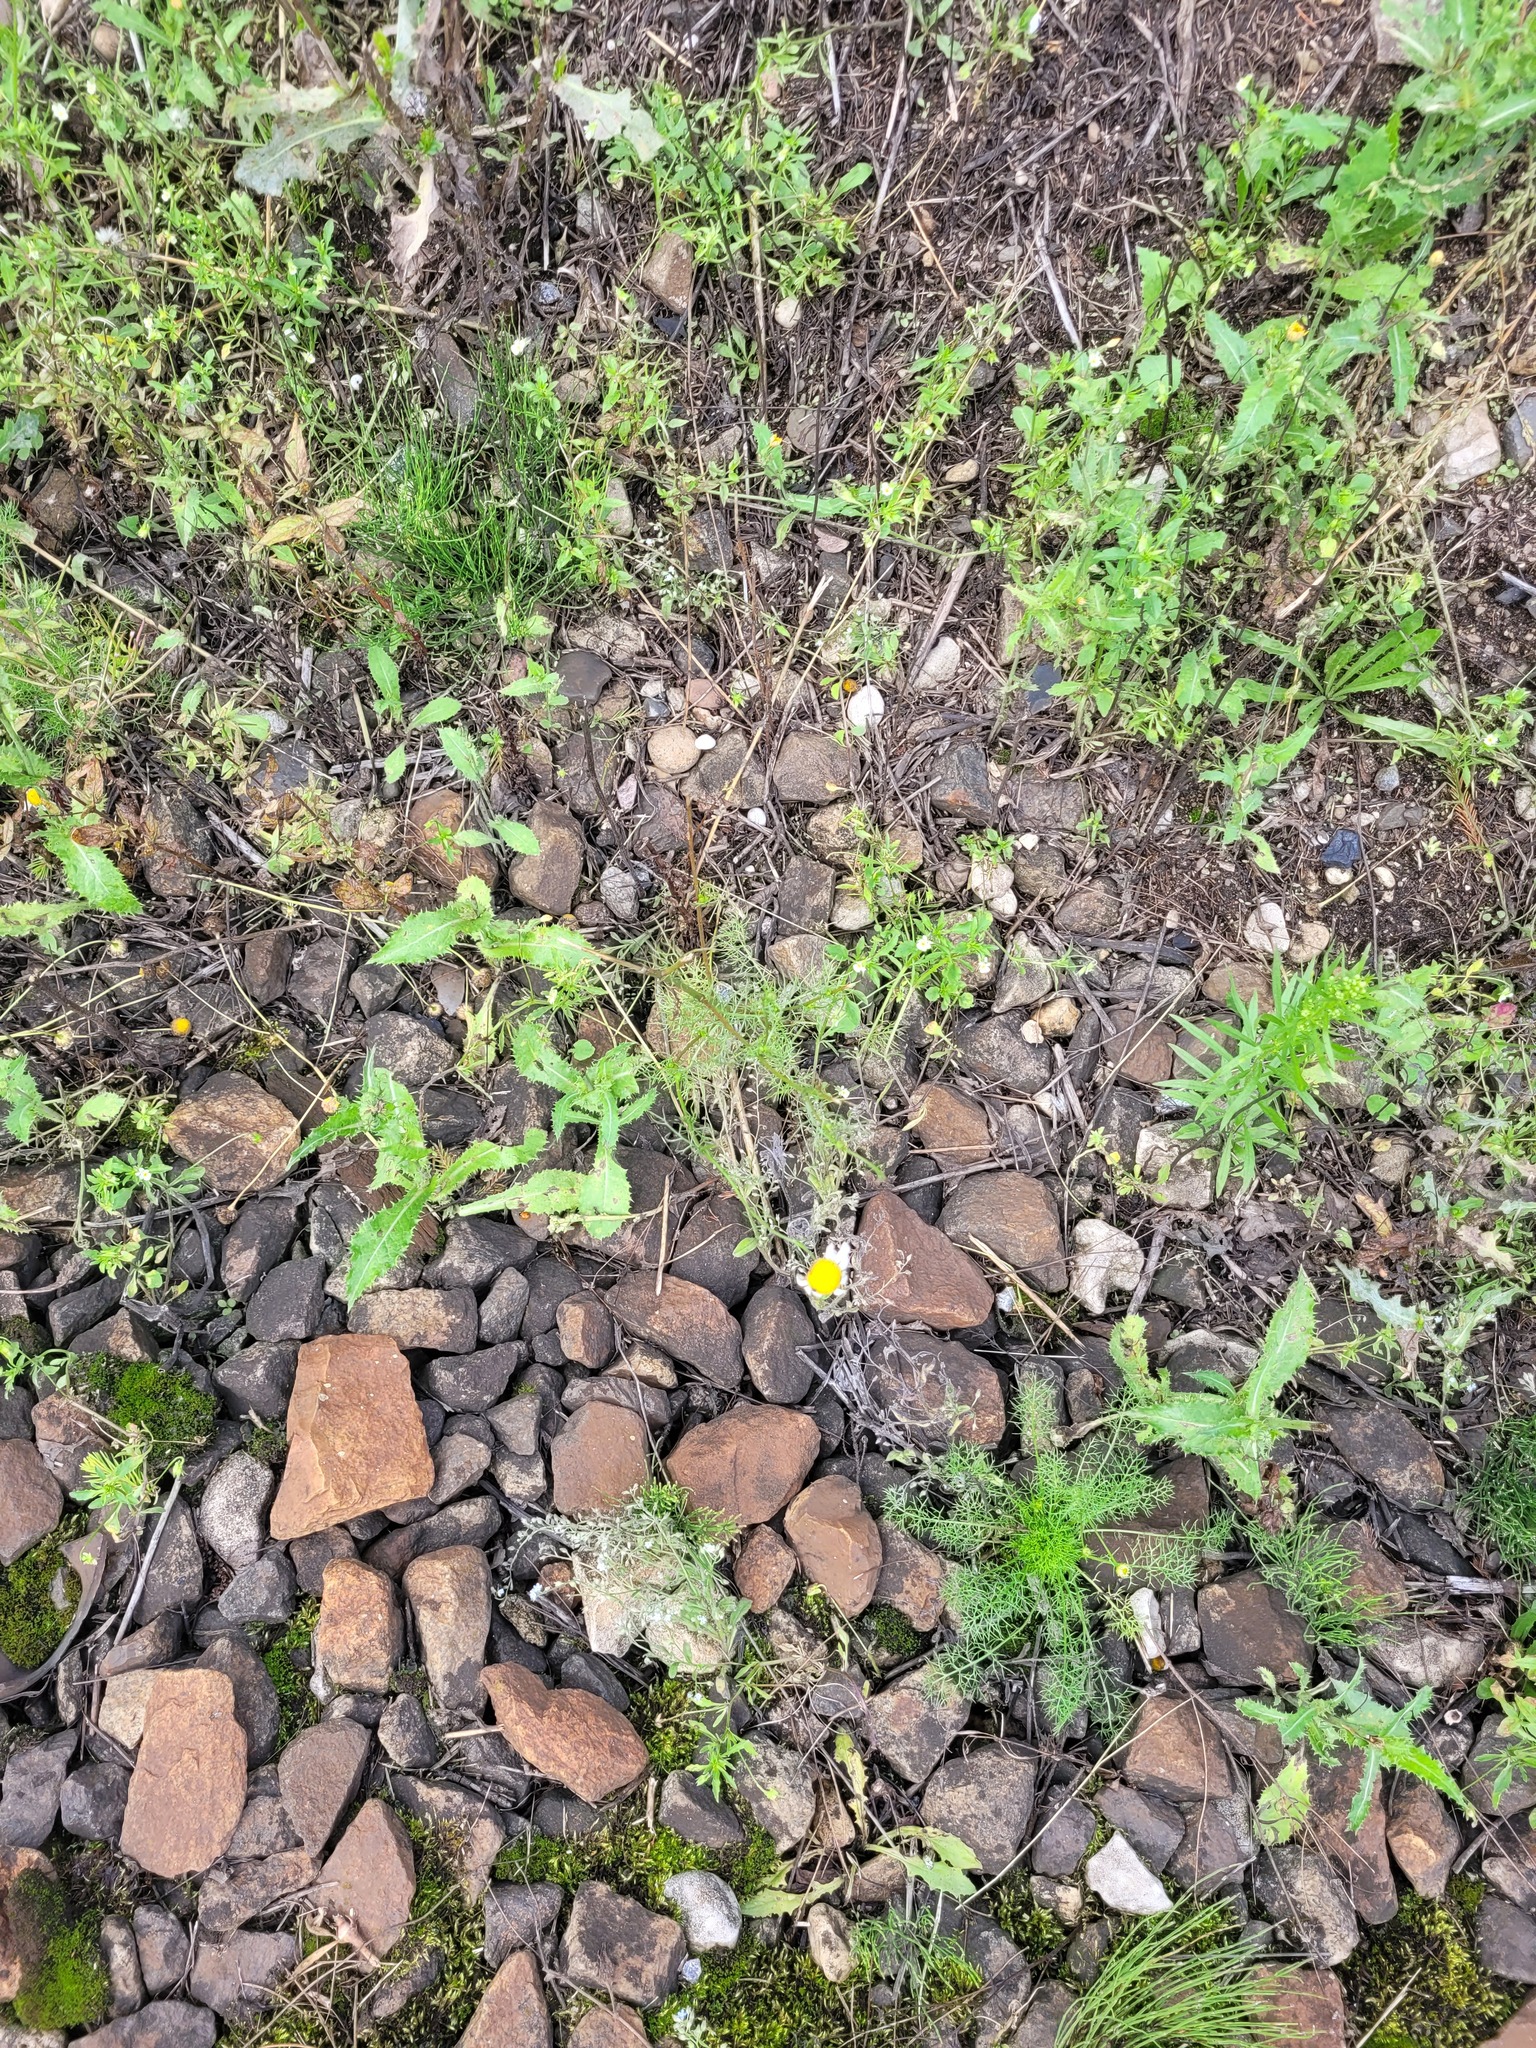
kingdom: Plantae
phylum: Tracheophyta
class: Magnoliopsida
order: Asterales
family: Asteraceae
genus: Tripleurospermum
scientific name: Tripleurospermum inodorum
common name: Scentless mayweed
